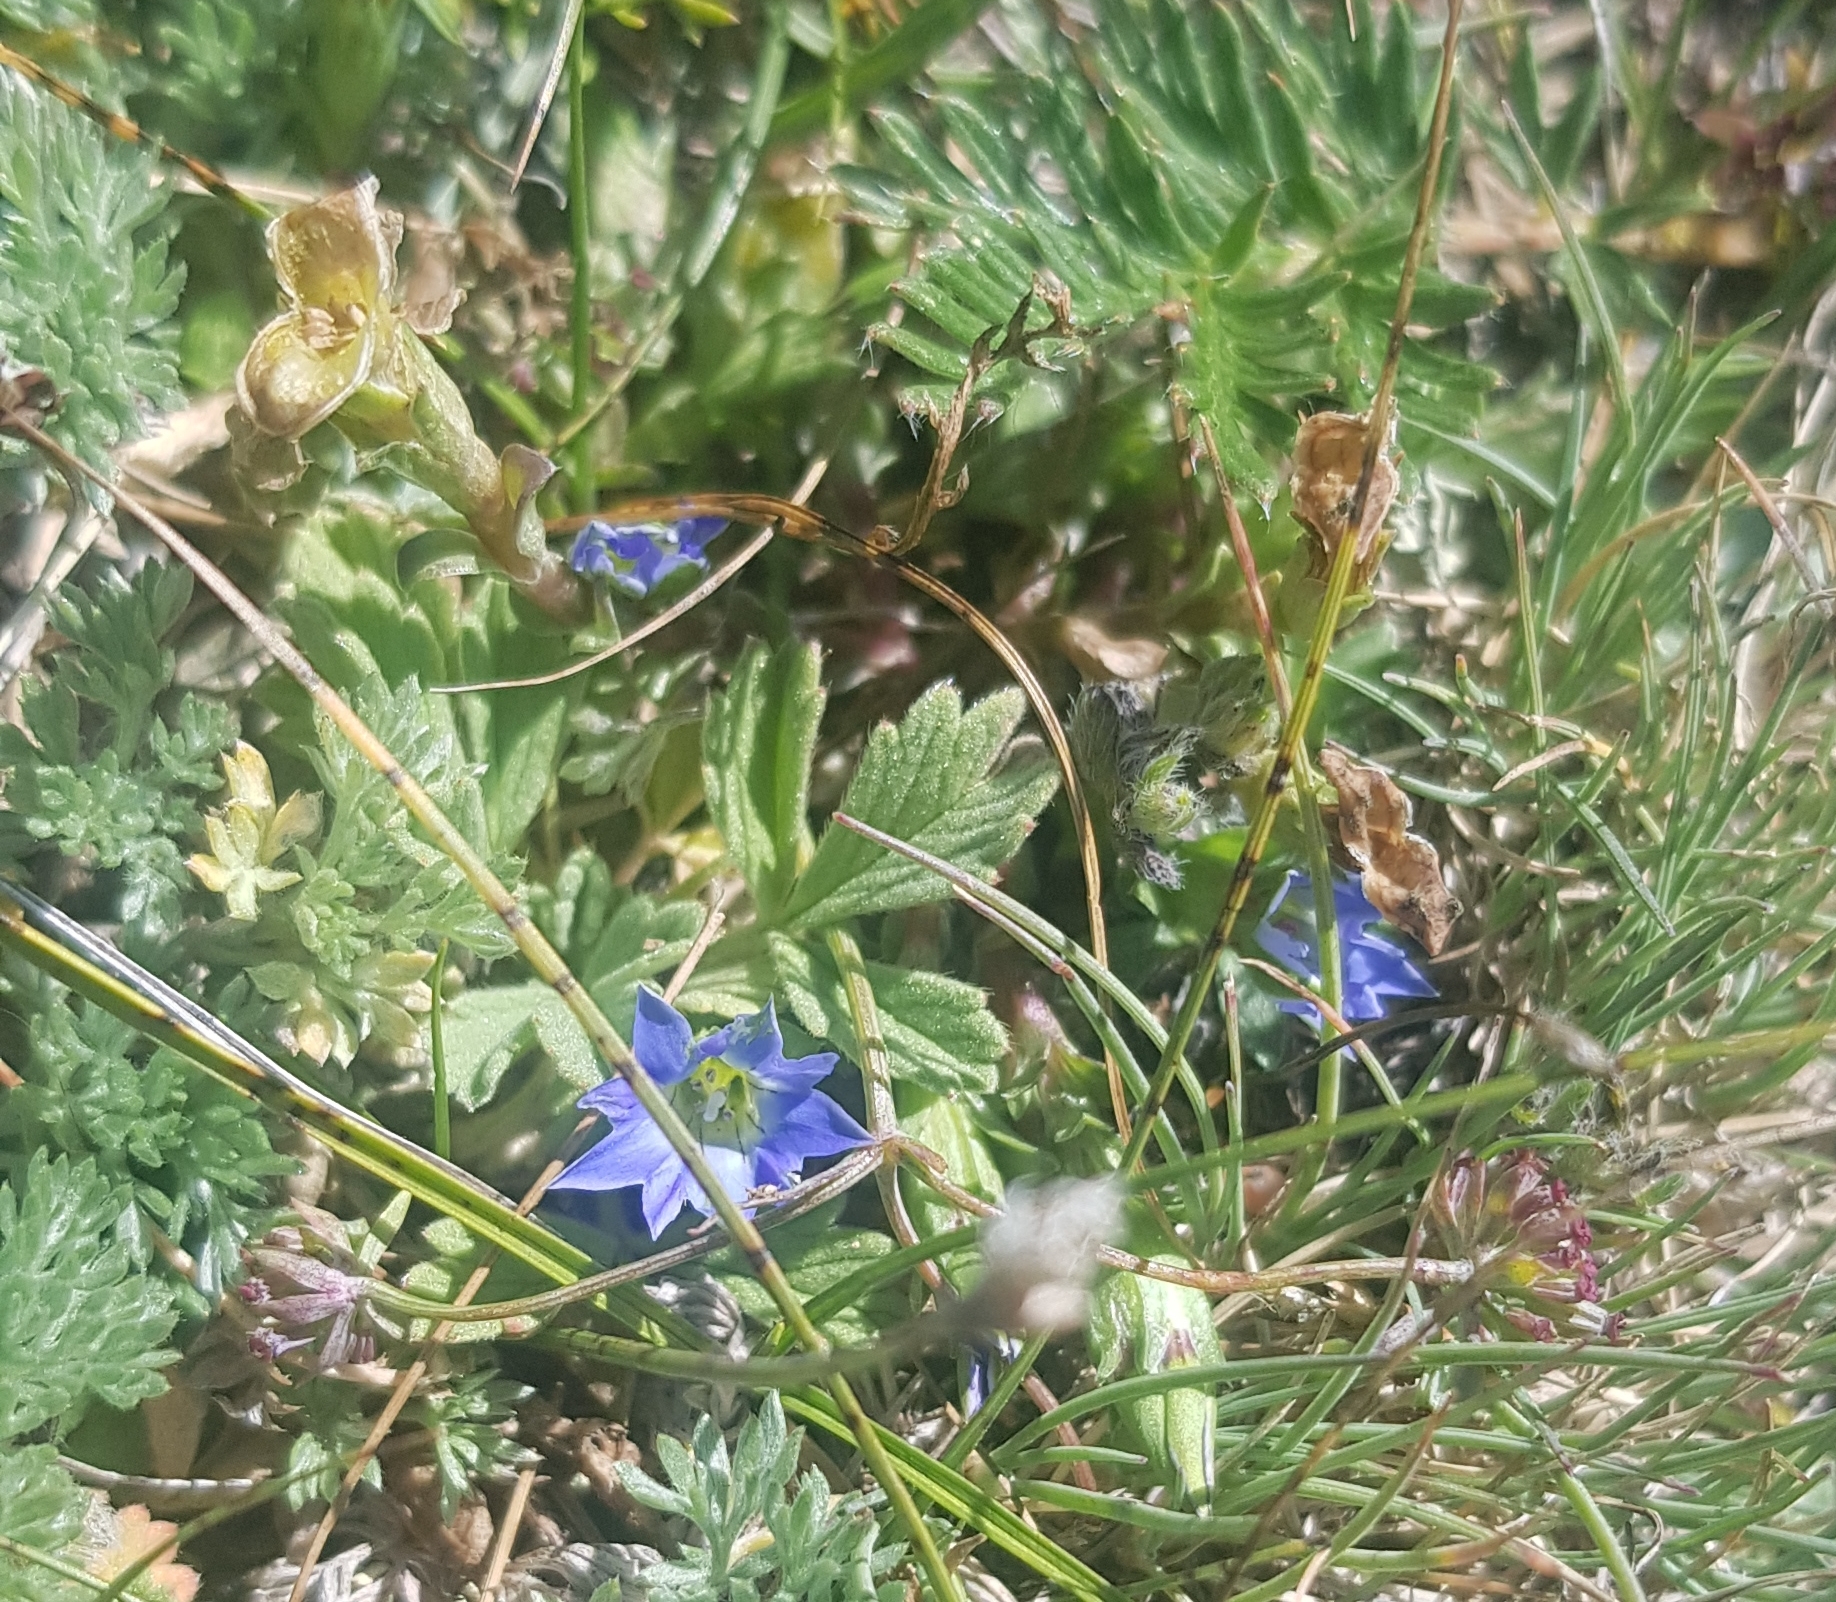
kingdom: Plantae
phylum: Tracheophyta
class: Magnoliopsida
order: Gentianales
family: Gentianaceae
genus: Gentiana
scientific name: Gentiana squarrosa
